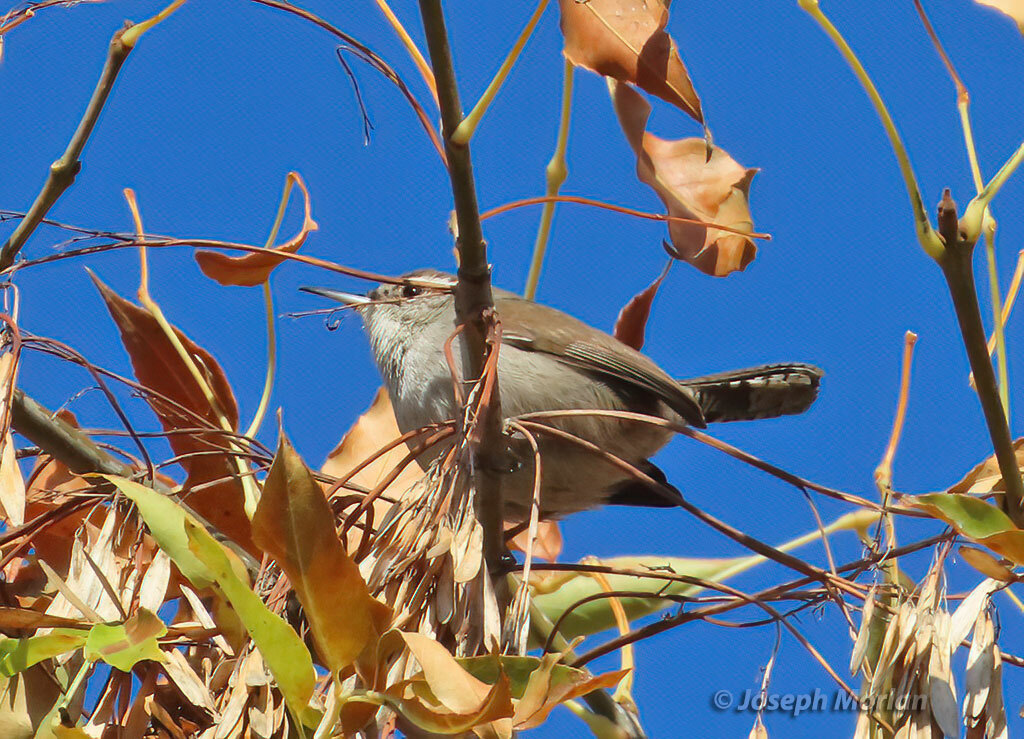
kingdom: Animalia
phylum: Chordata
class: Aves
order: Passeriformes
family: Troglodytidae
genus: Thryomanes
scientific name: Thryomanes bewickii
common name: Bewick's wren
